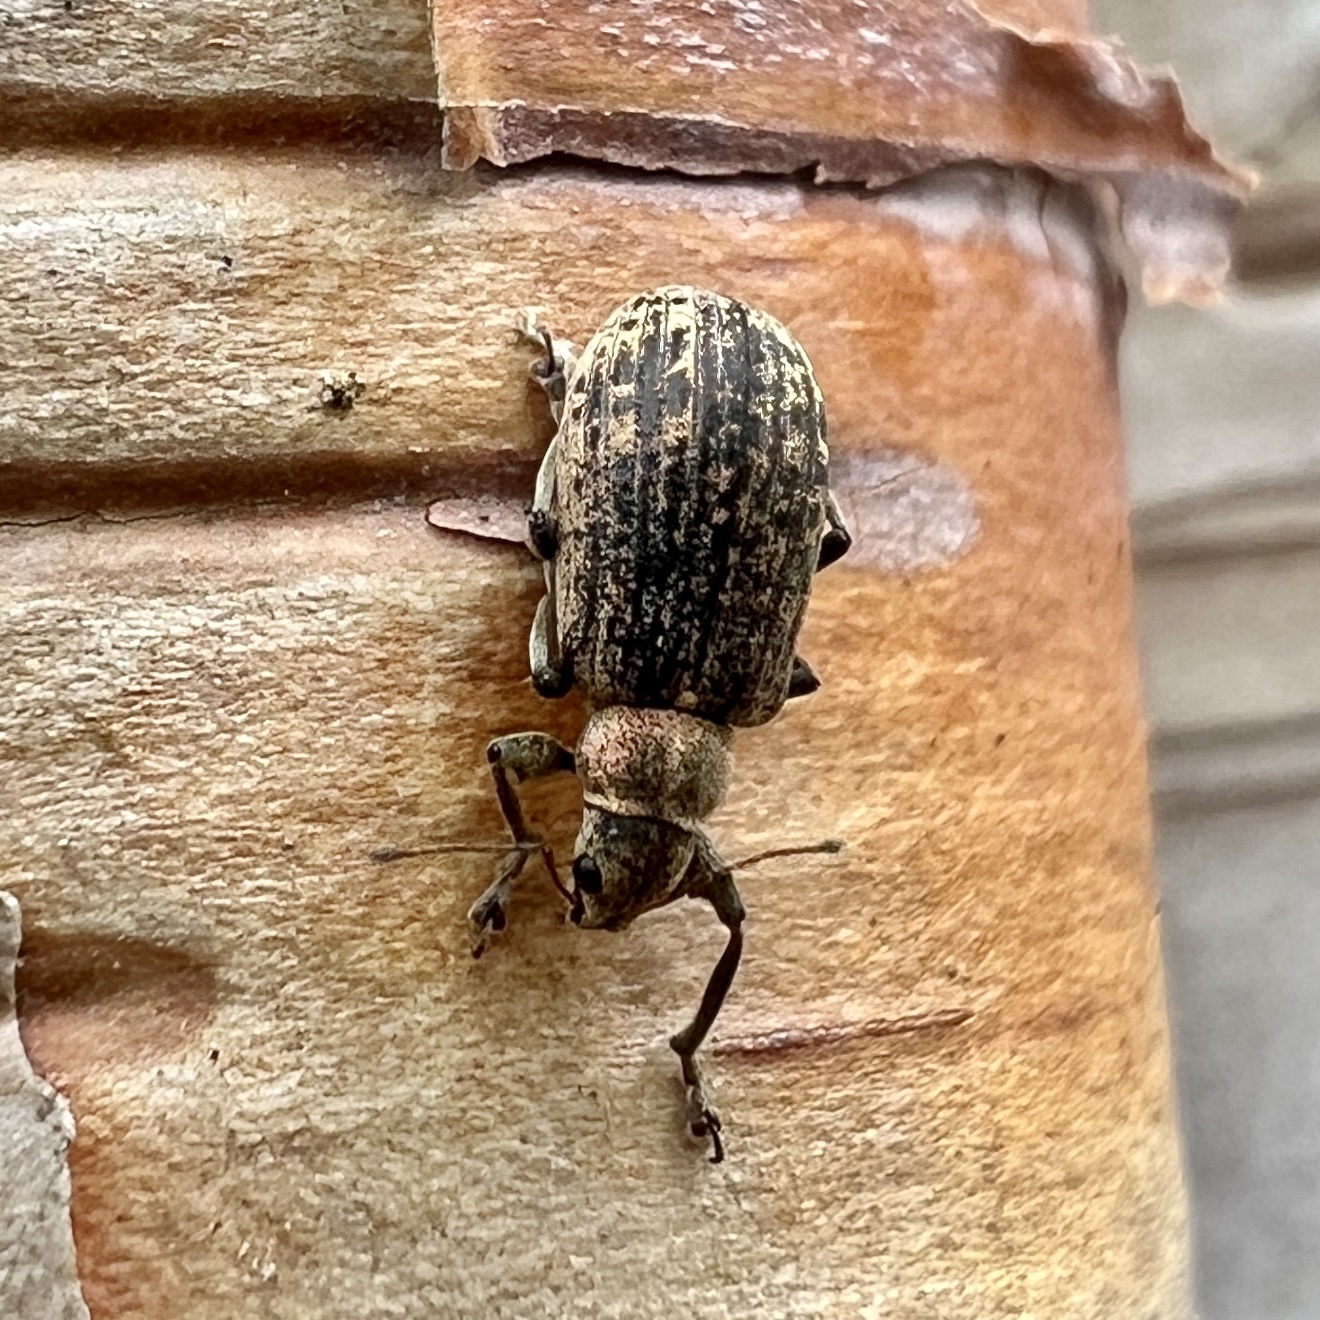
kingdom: Animalia
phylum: Arthropoda
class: Insecta
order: Coleoptera
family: Curculionidae
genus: Polydrusus
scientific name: Polydrusus cervinus
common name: Weevil
